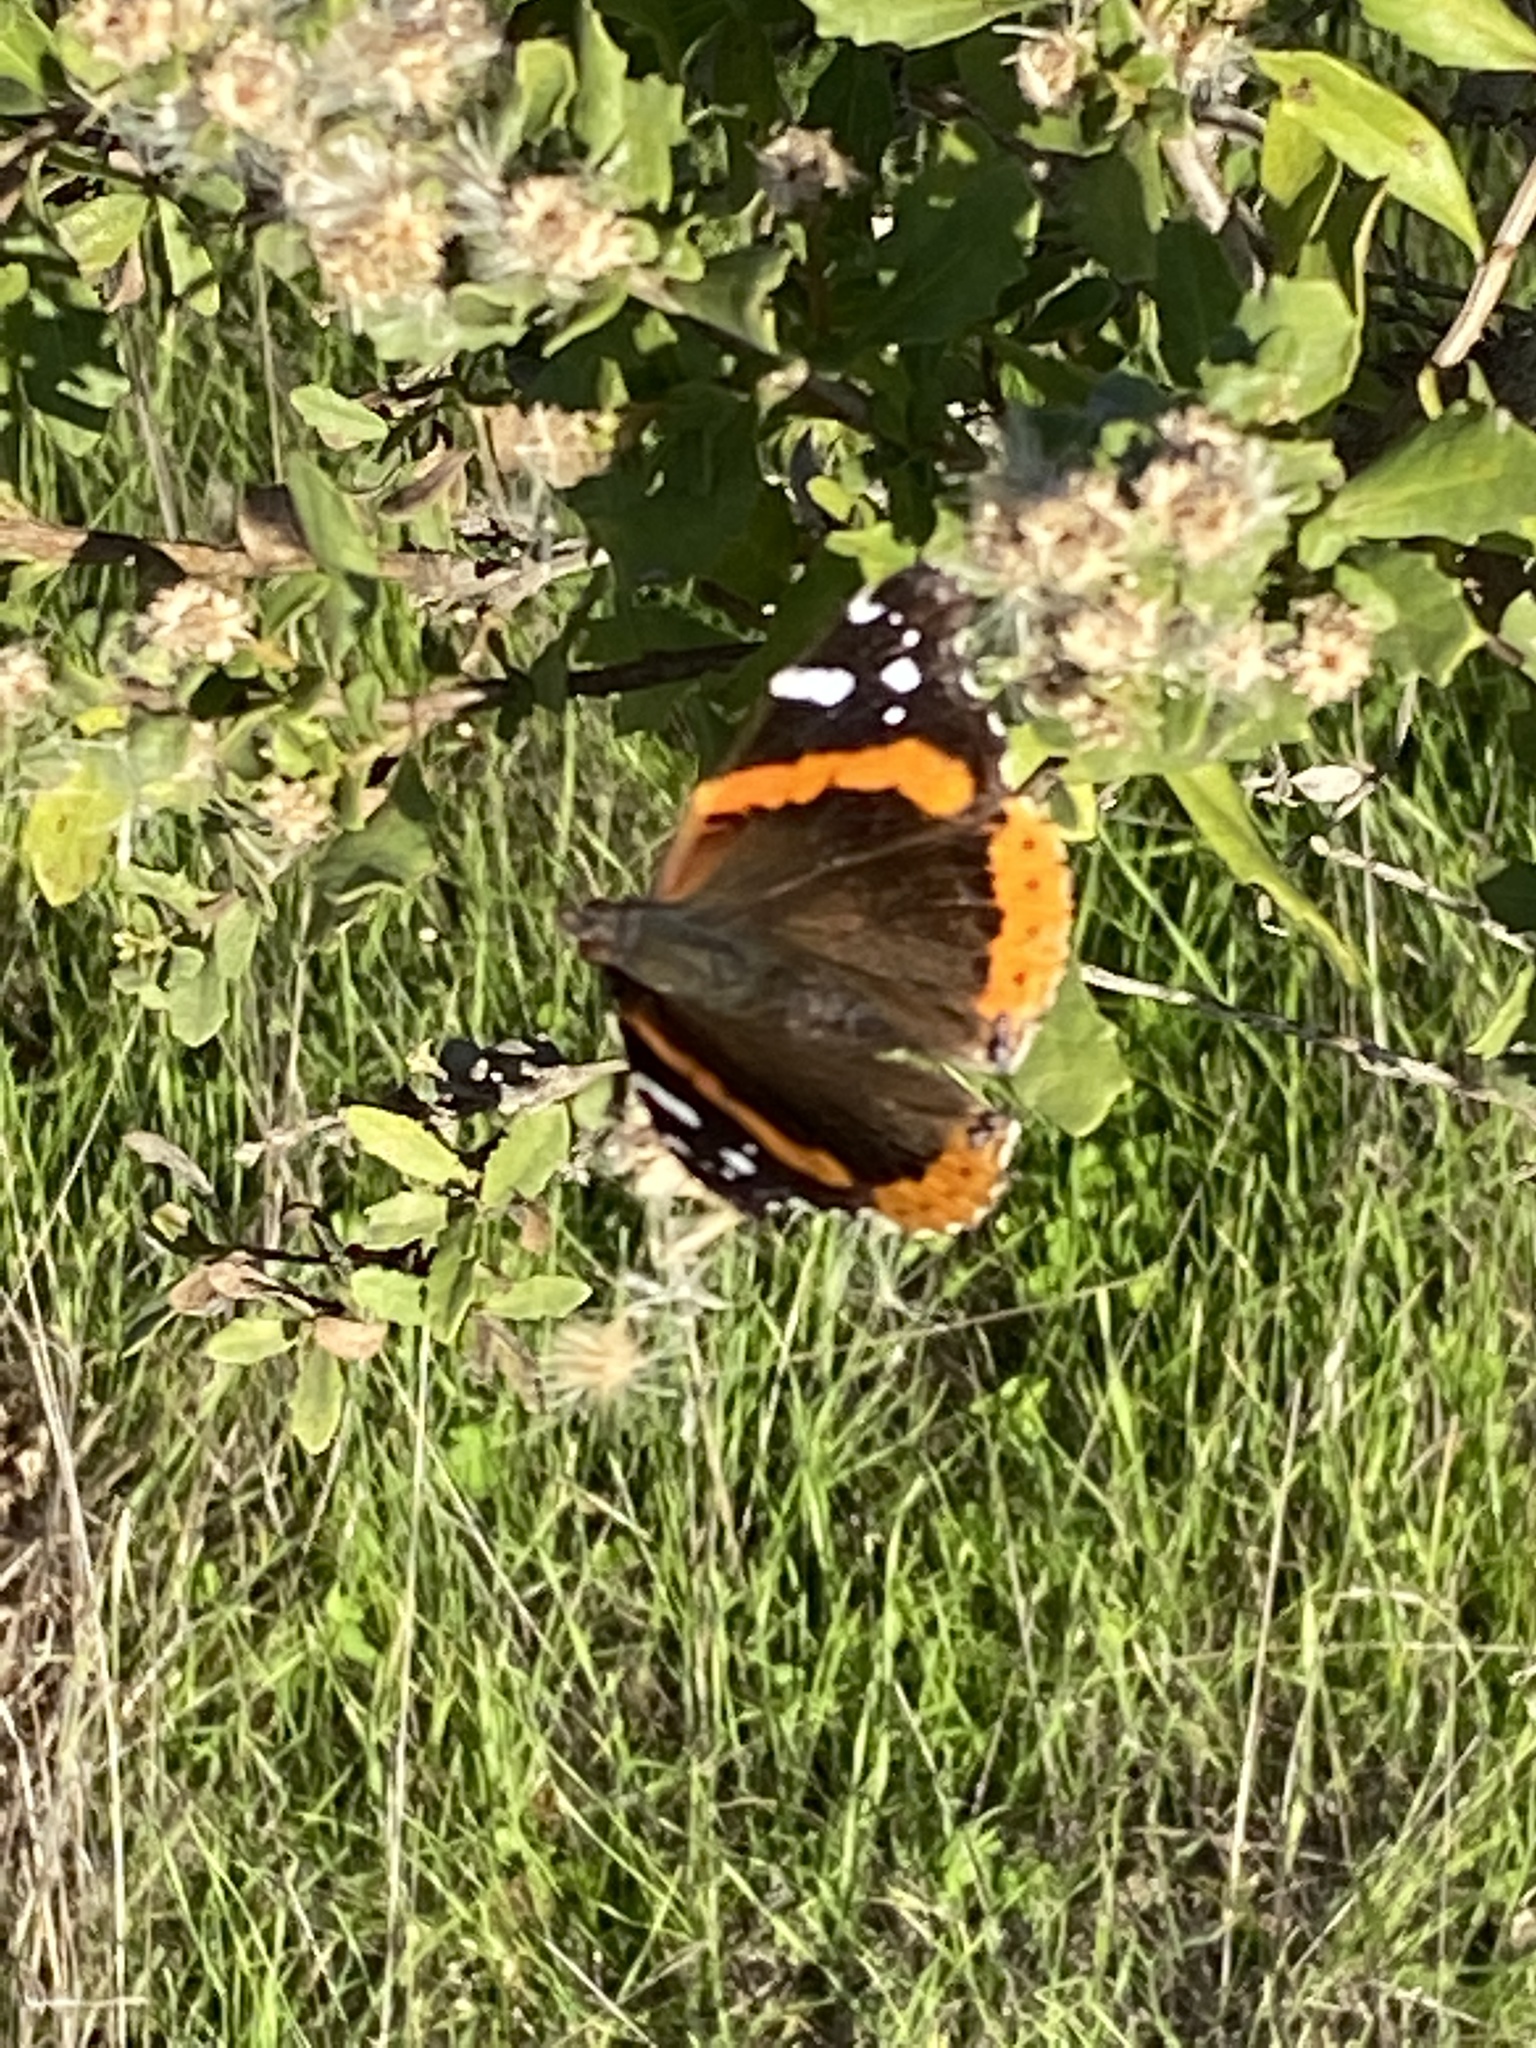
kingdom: Animalia
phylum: Arthropoda
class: Insecta
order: Lepidoptera
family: Nymphalidae
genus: Vanessa
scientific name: Vanessa atalanta
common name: Red admiral
